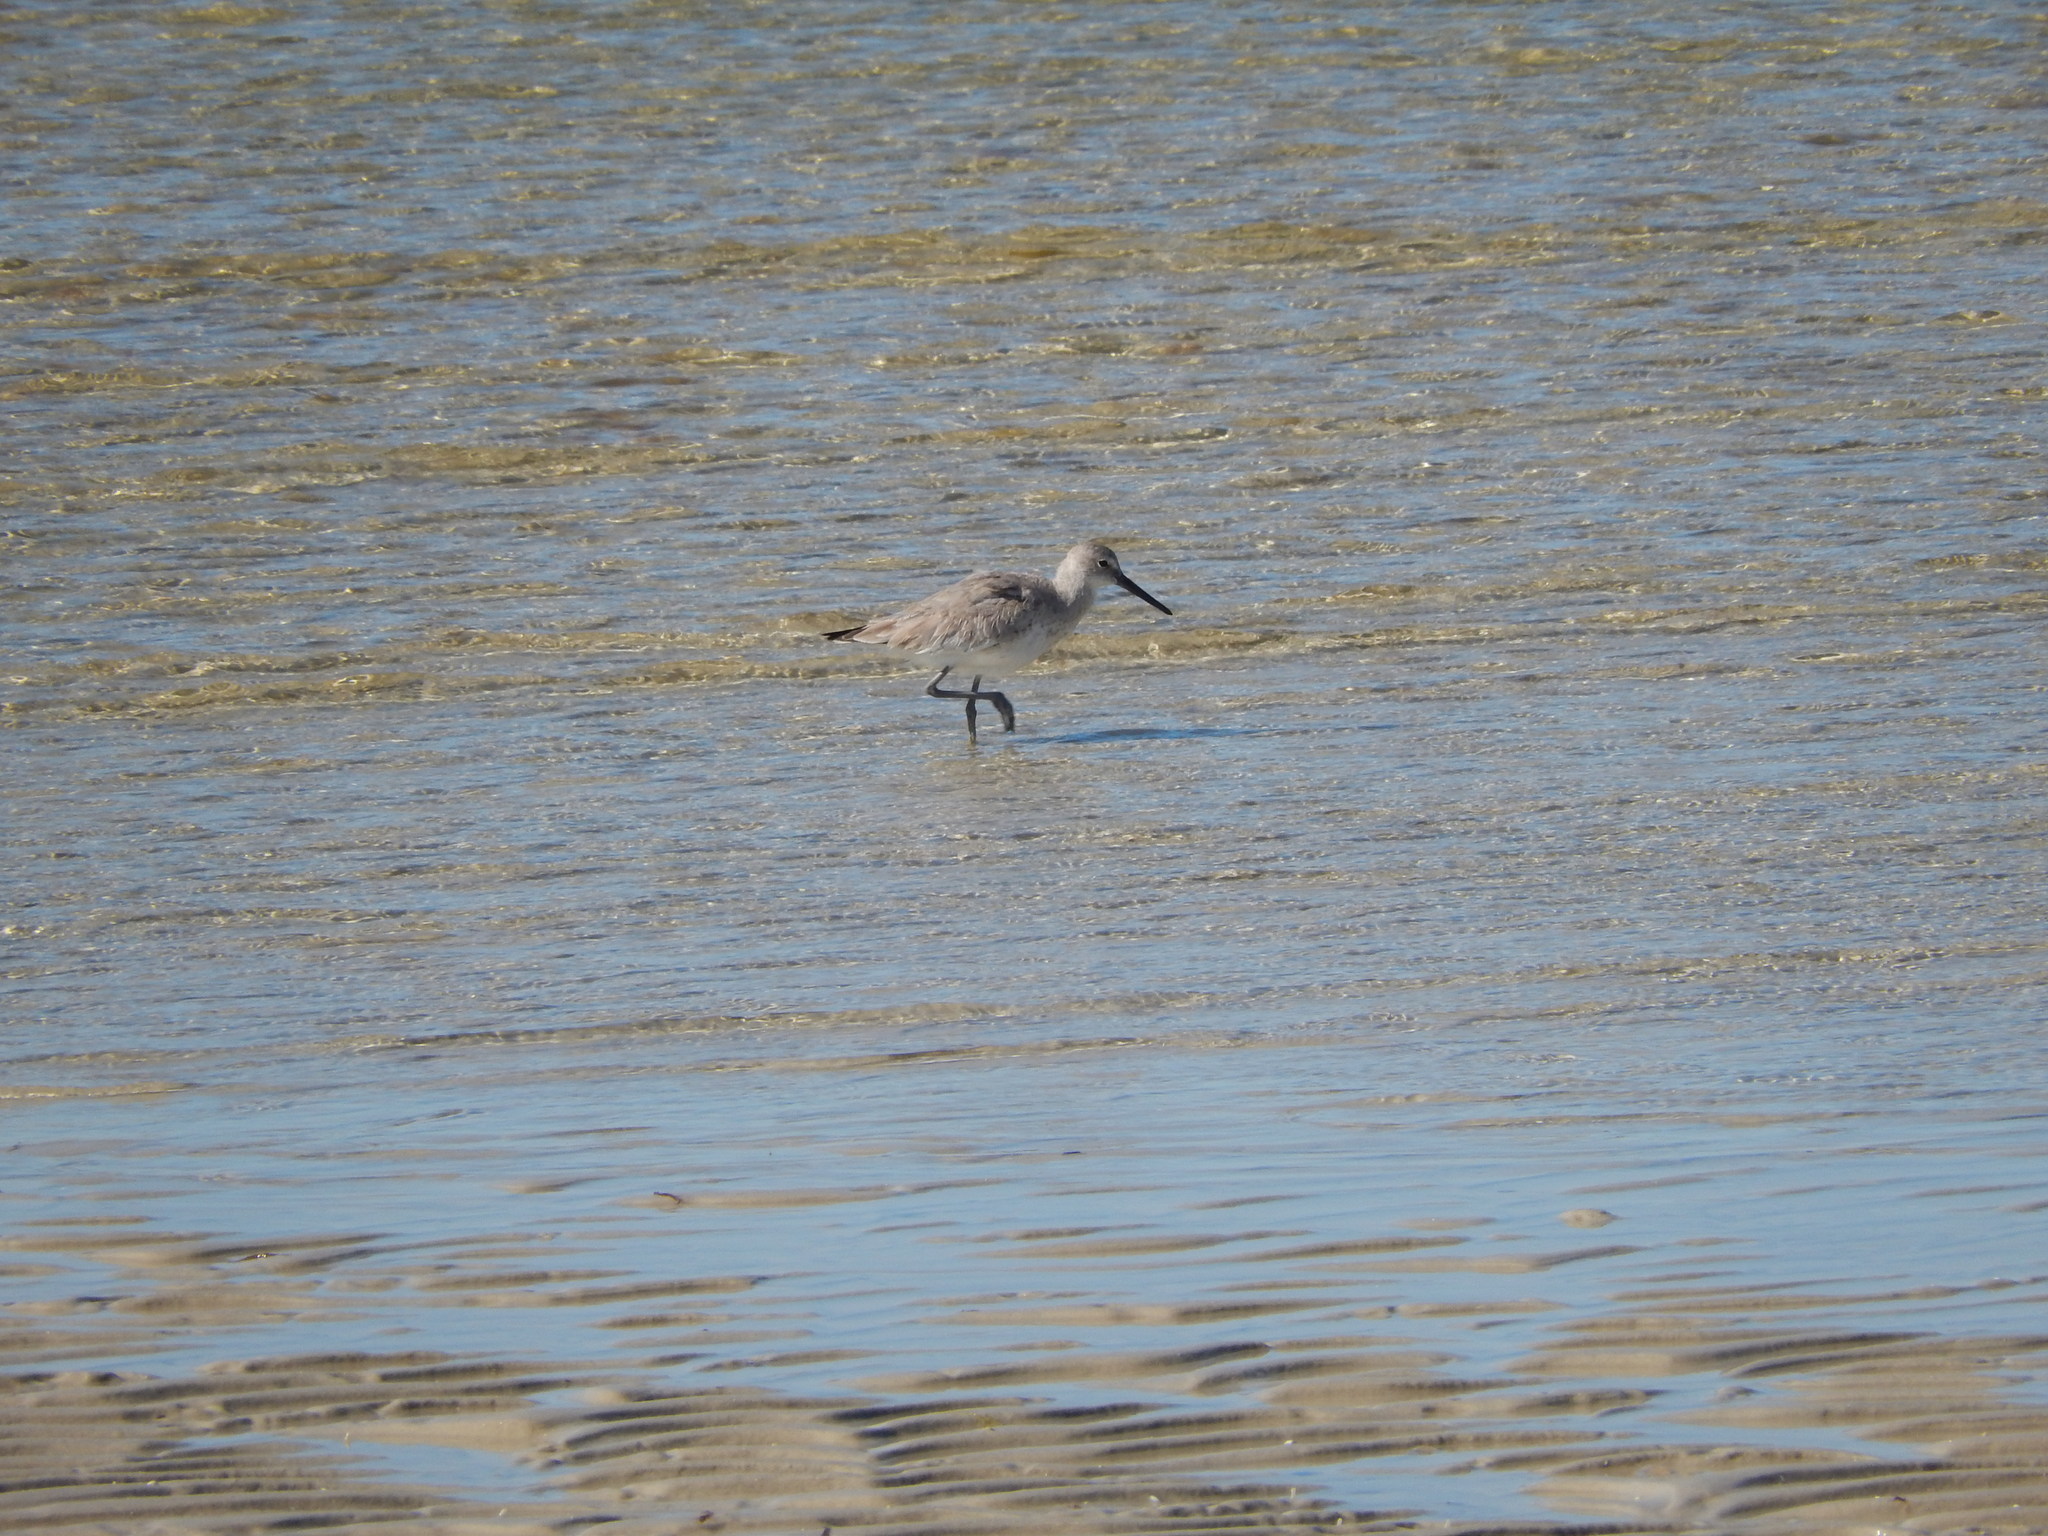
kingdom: Animalia
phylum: Chordata
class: Aves
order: Charadriiformes
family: Scolopacidae
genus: Tringa
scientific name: Tringa semipalmata
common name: Willet
